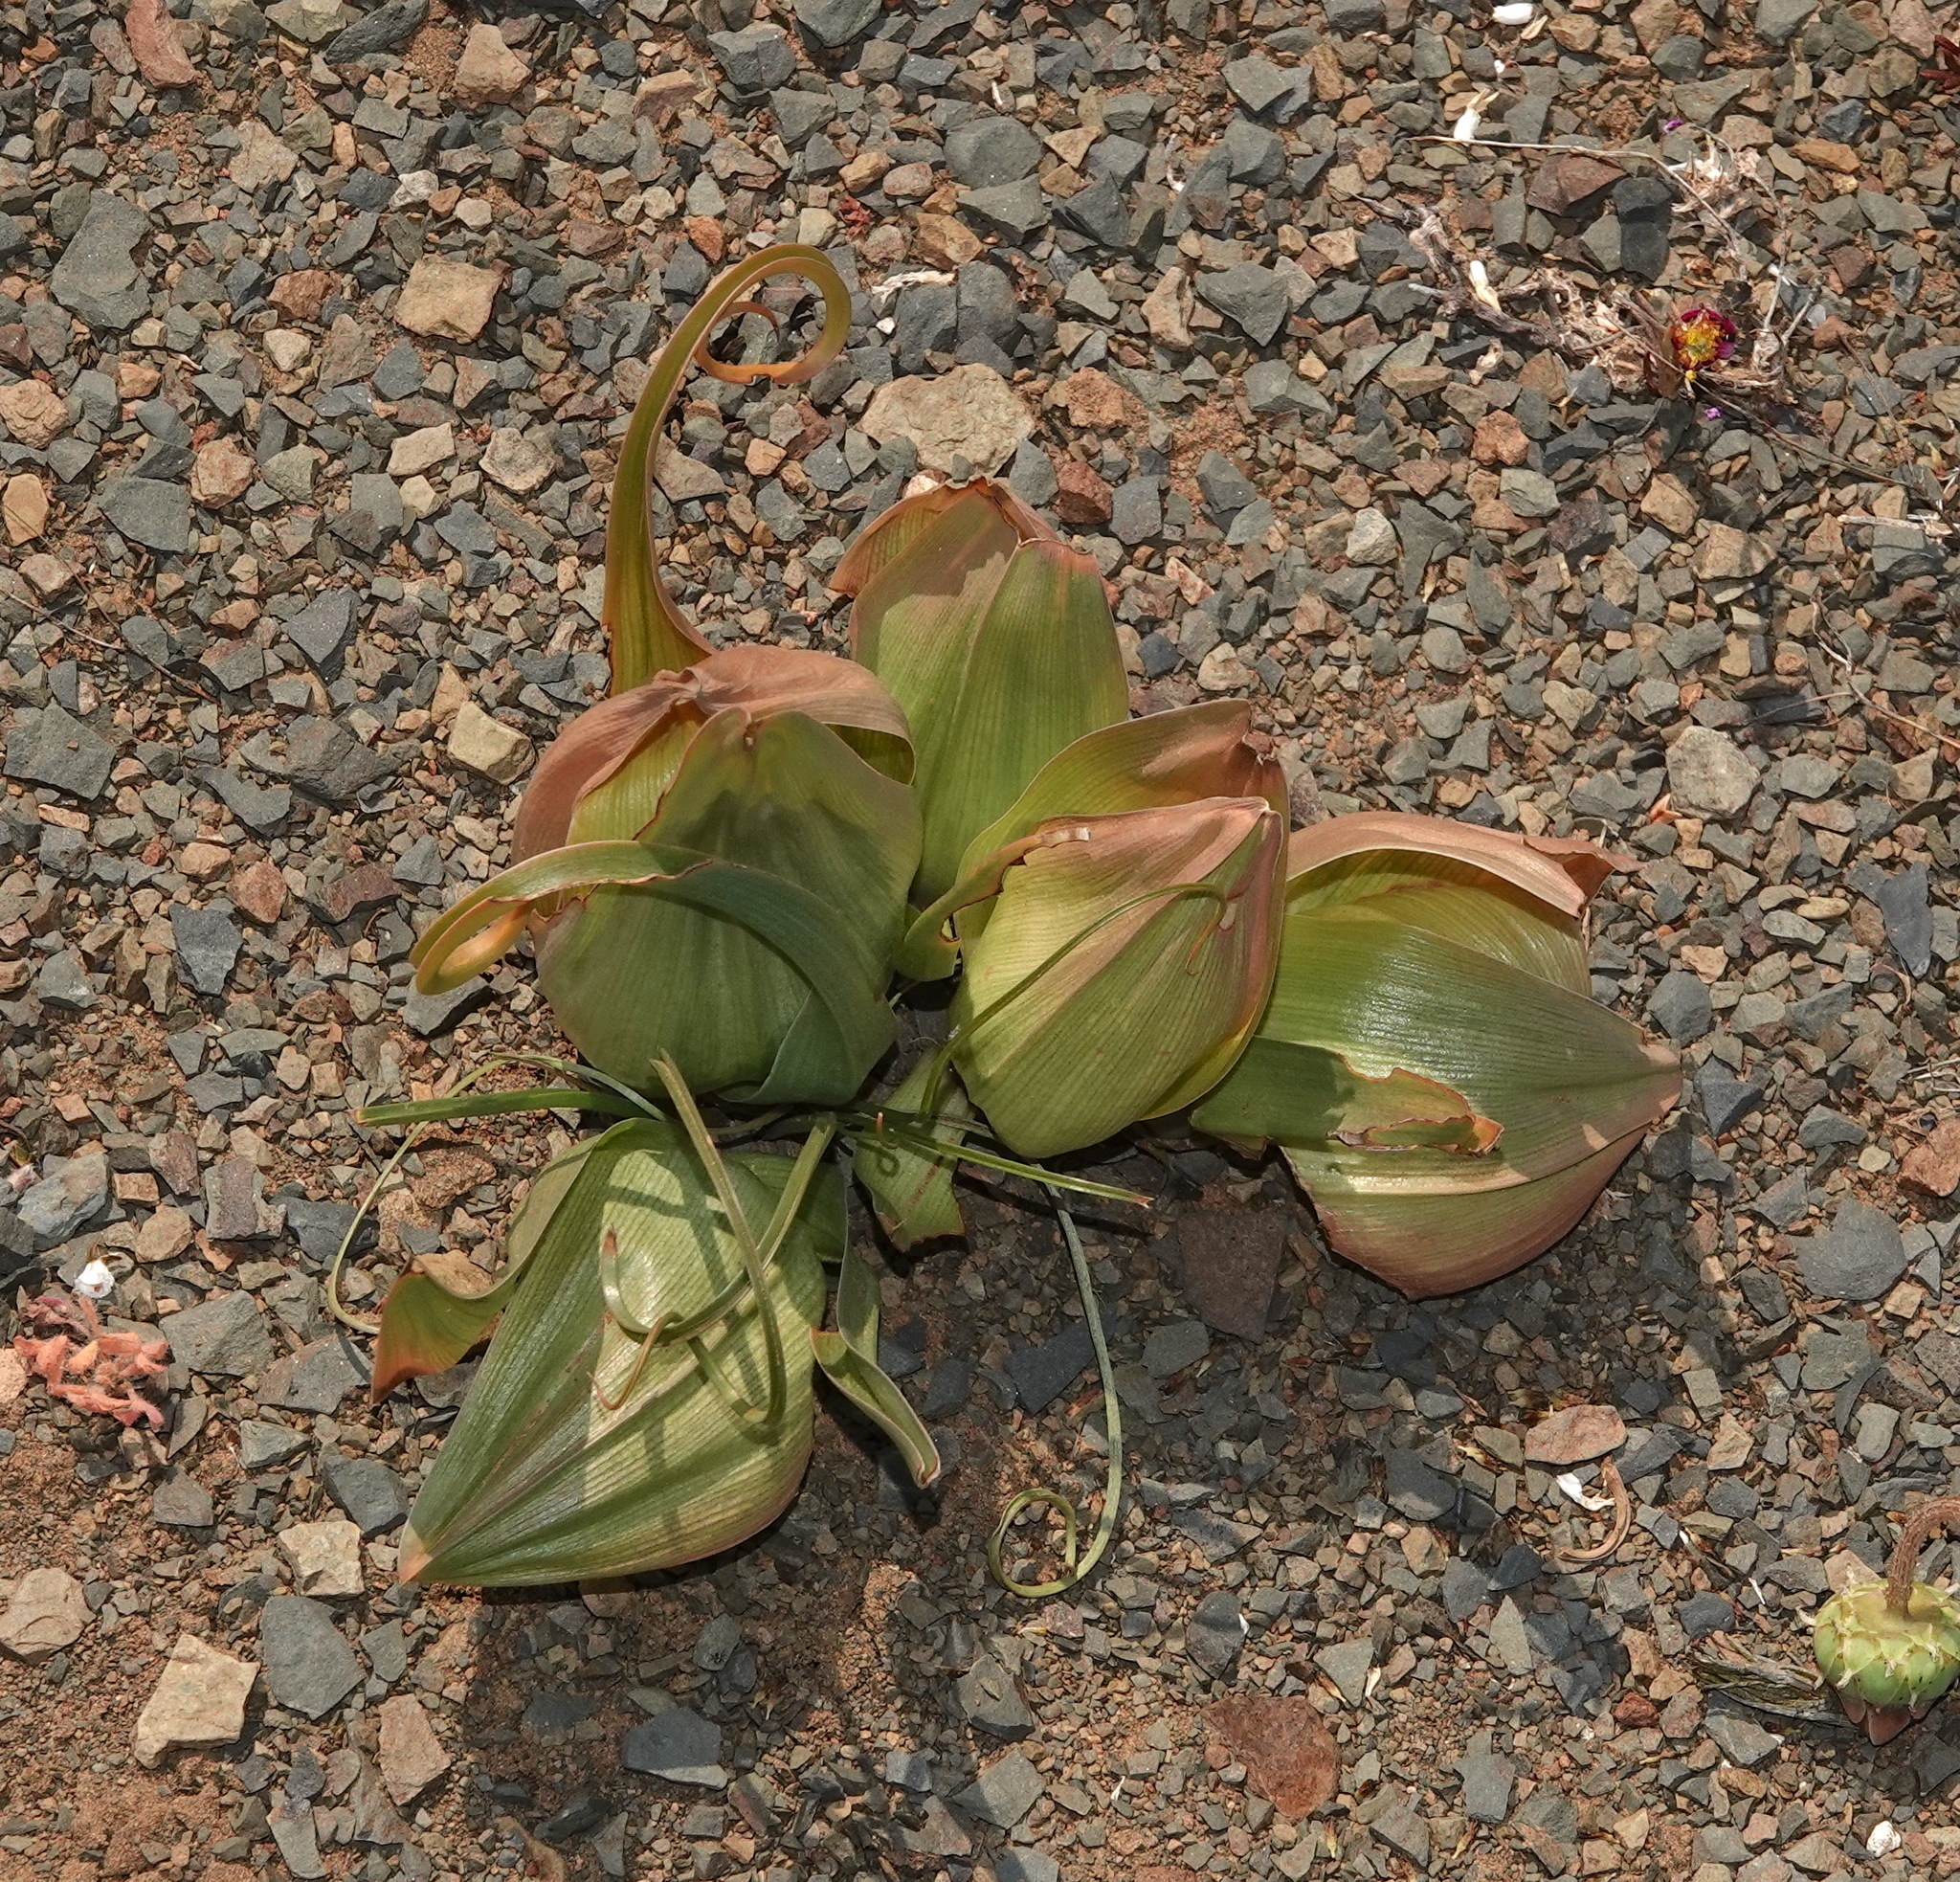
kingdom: Plantae
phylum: Tracheophyta
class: Liliopsida
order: Liliales
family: Colchicaceae
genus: Colchicum
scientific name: Colchicum volutare
